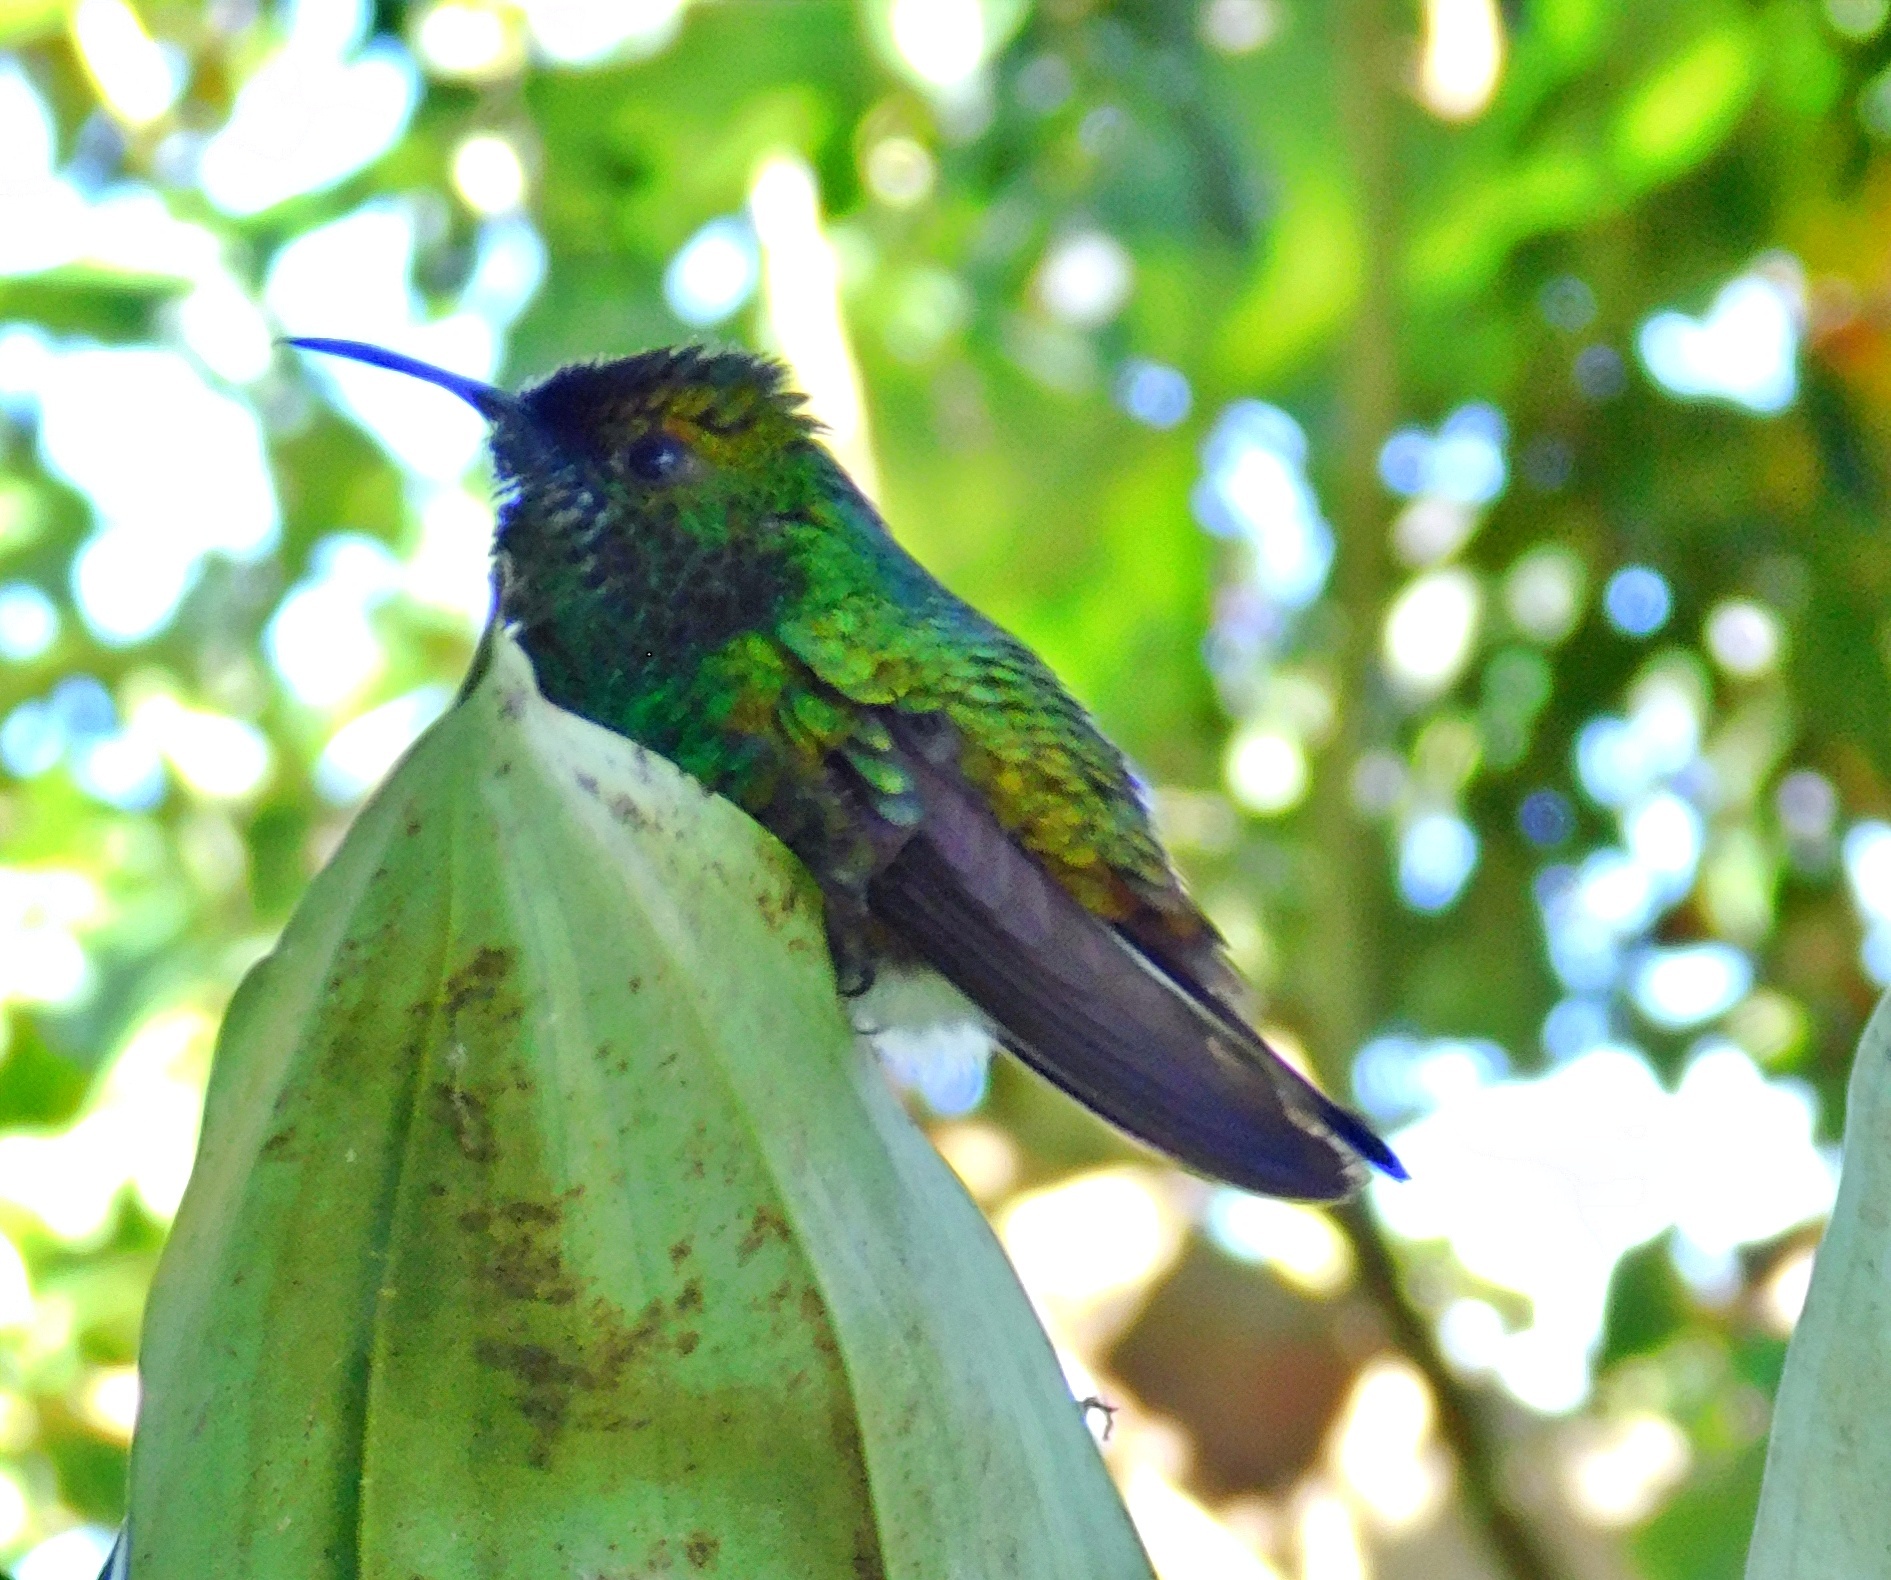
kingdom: Animalia
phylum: Chordata
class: Aves
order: Apodiformes
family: Trochilidae
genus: Microchera
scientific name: Microchera cupreiceps
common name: Coppery-headed emerald
